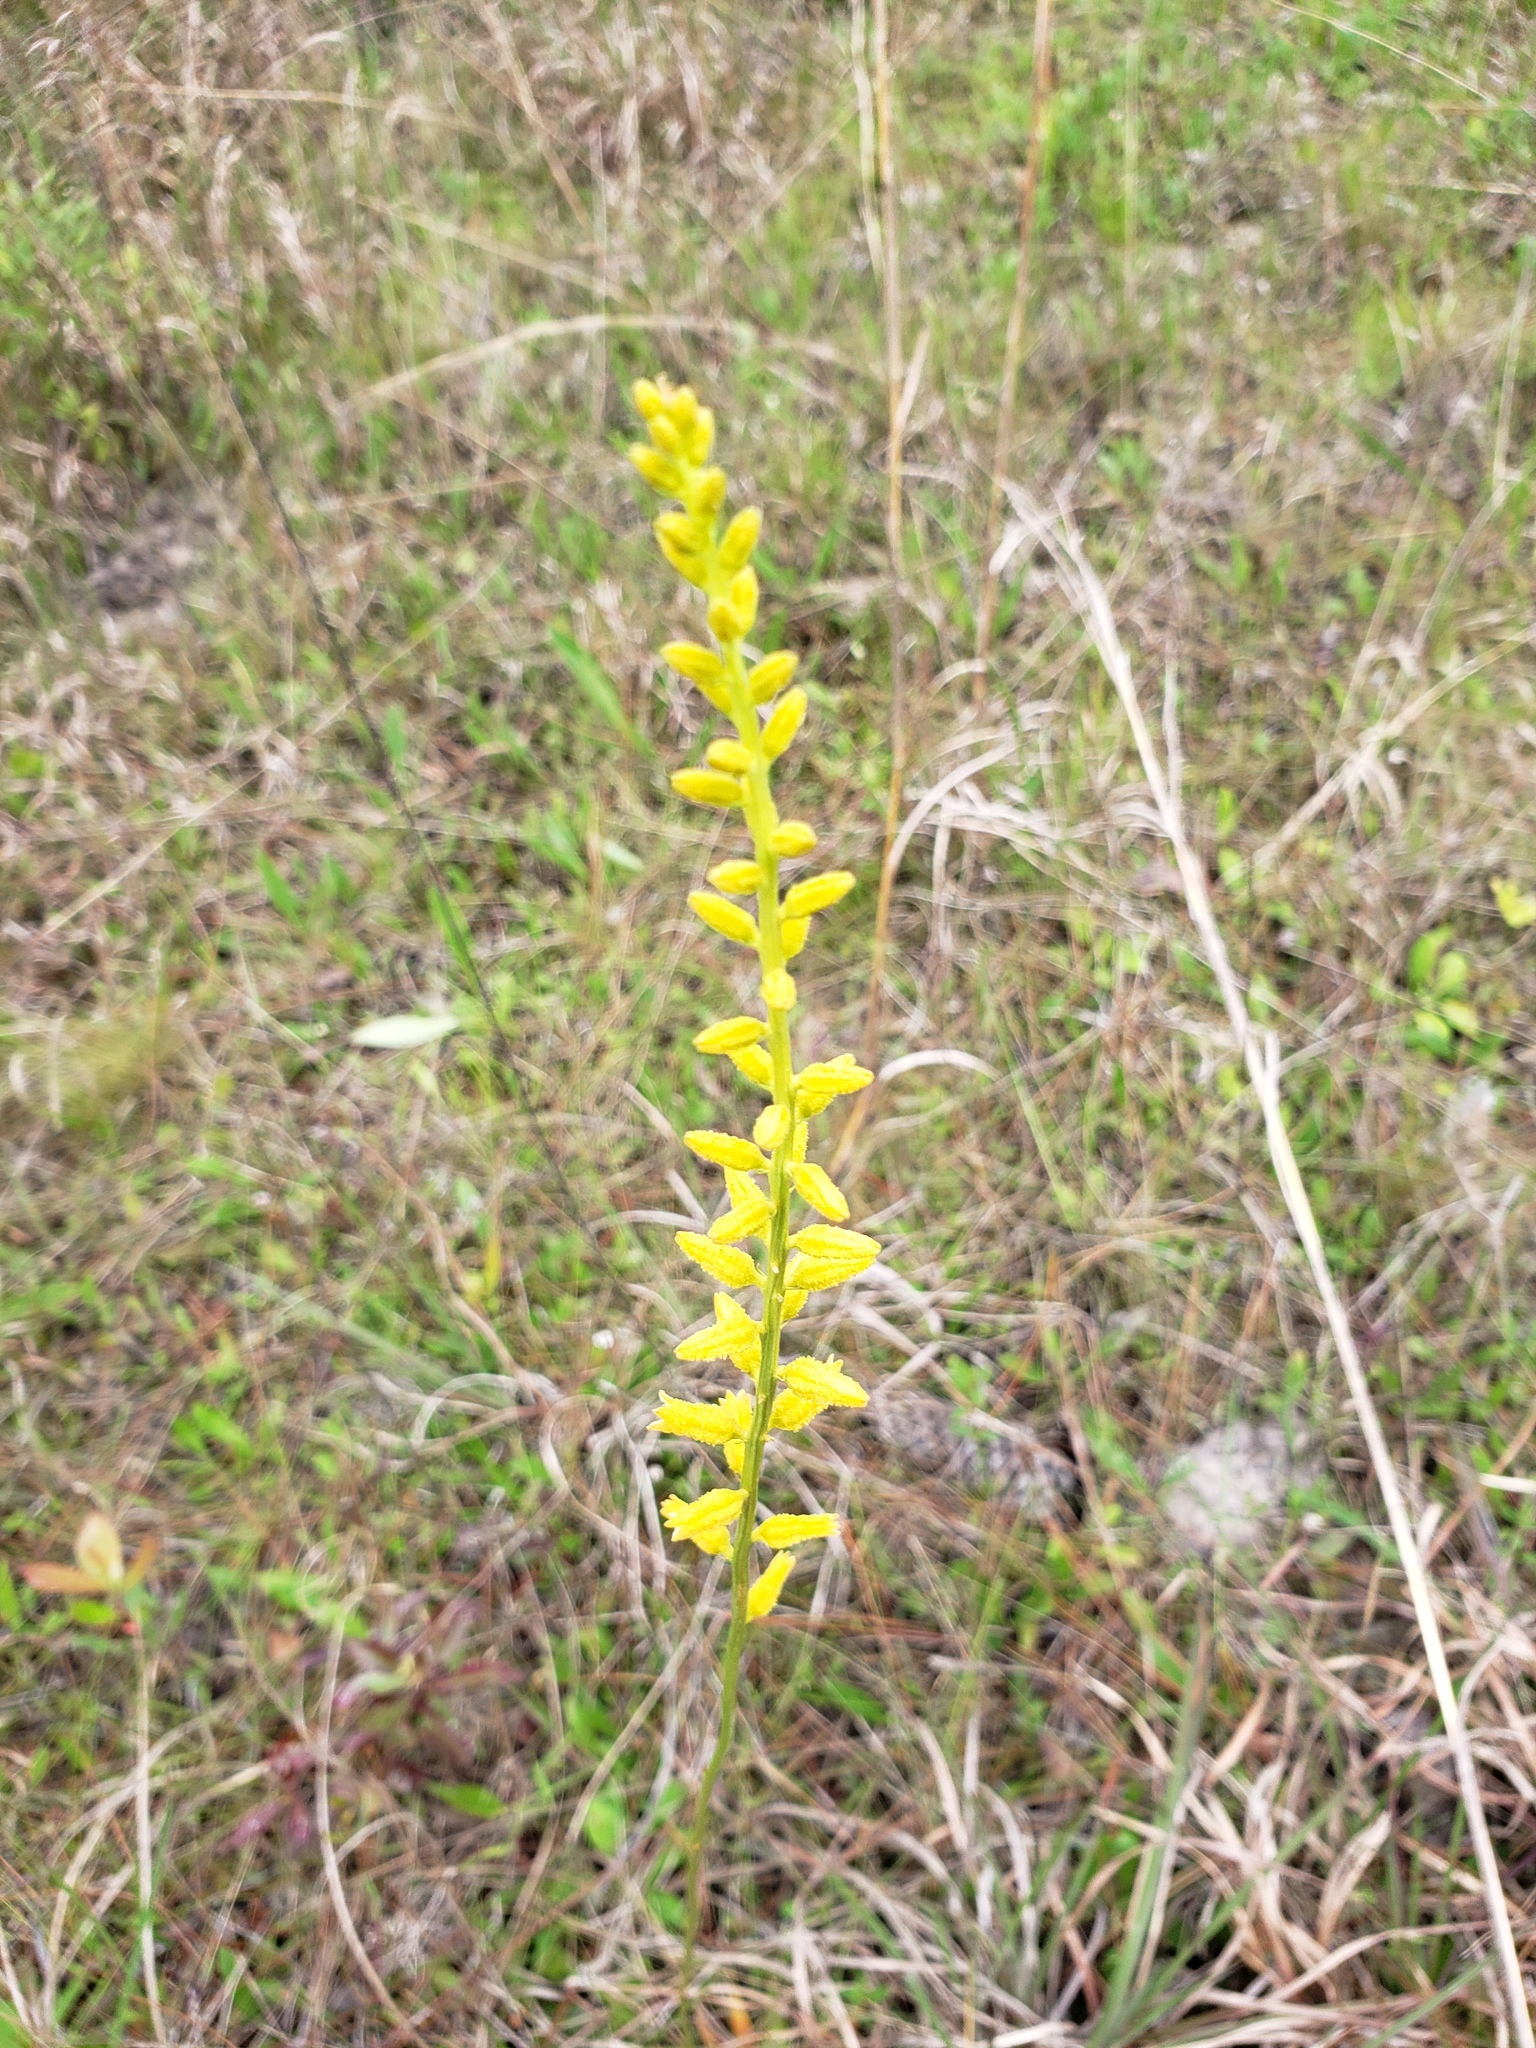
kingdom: Plantae
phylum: Tracheophyta
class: Liliopsida
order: Dioscoreales
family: Nartheciaceae
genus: Aletris
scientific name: Aletris lutea
